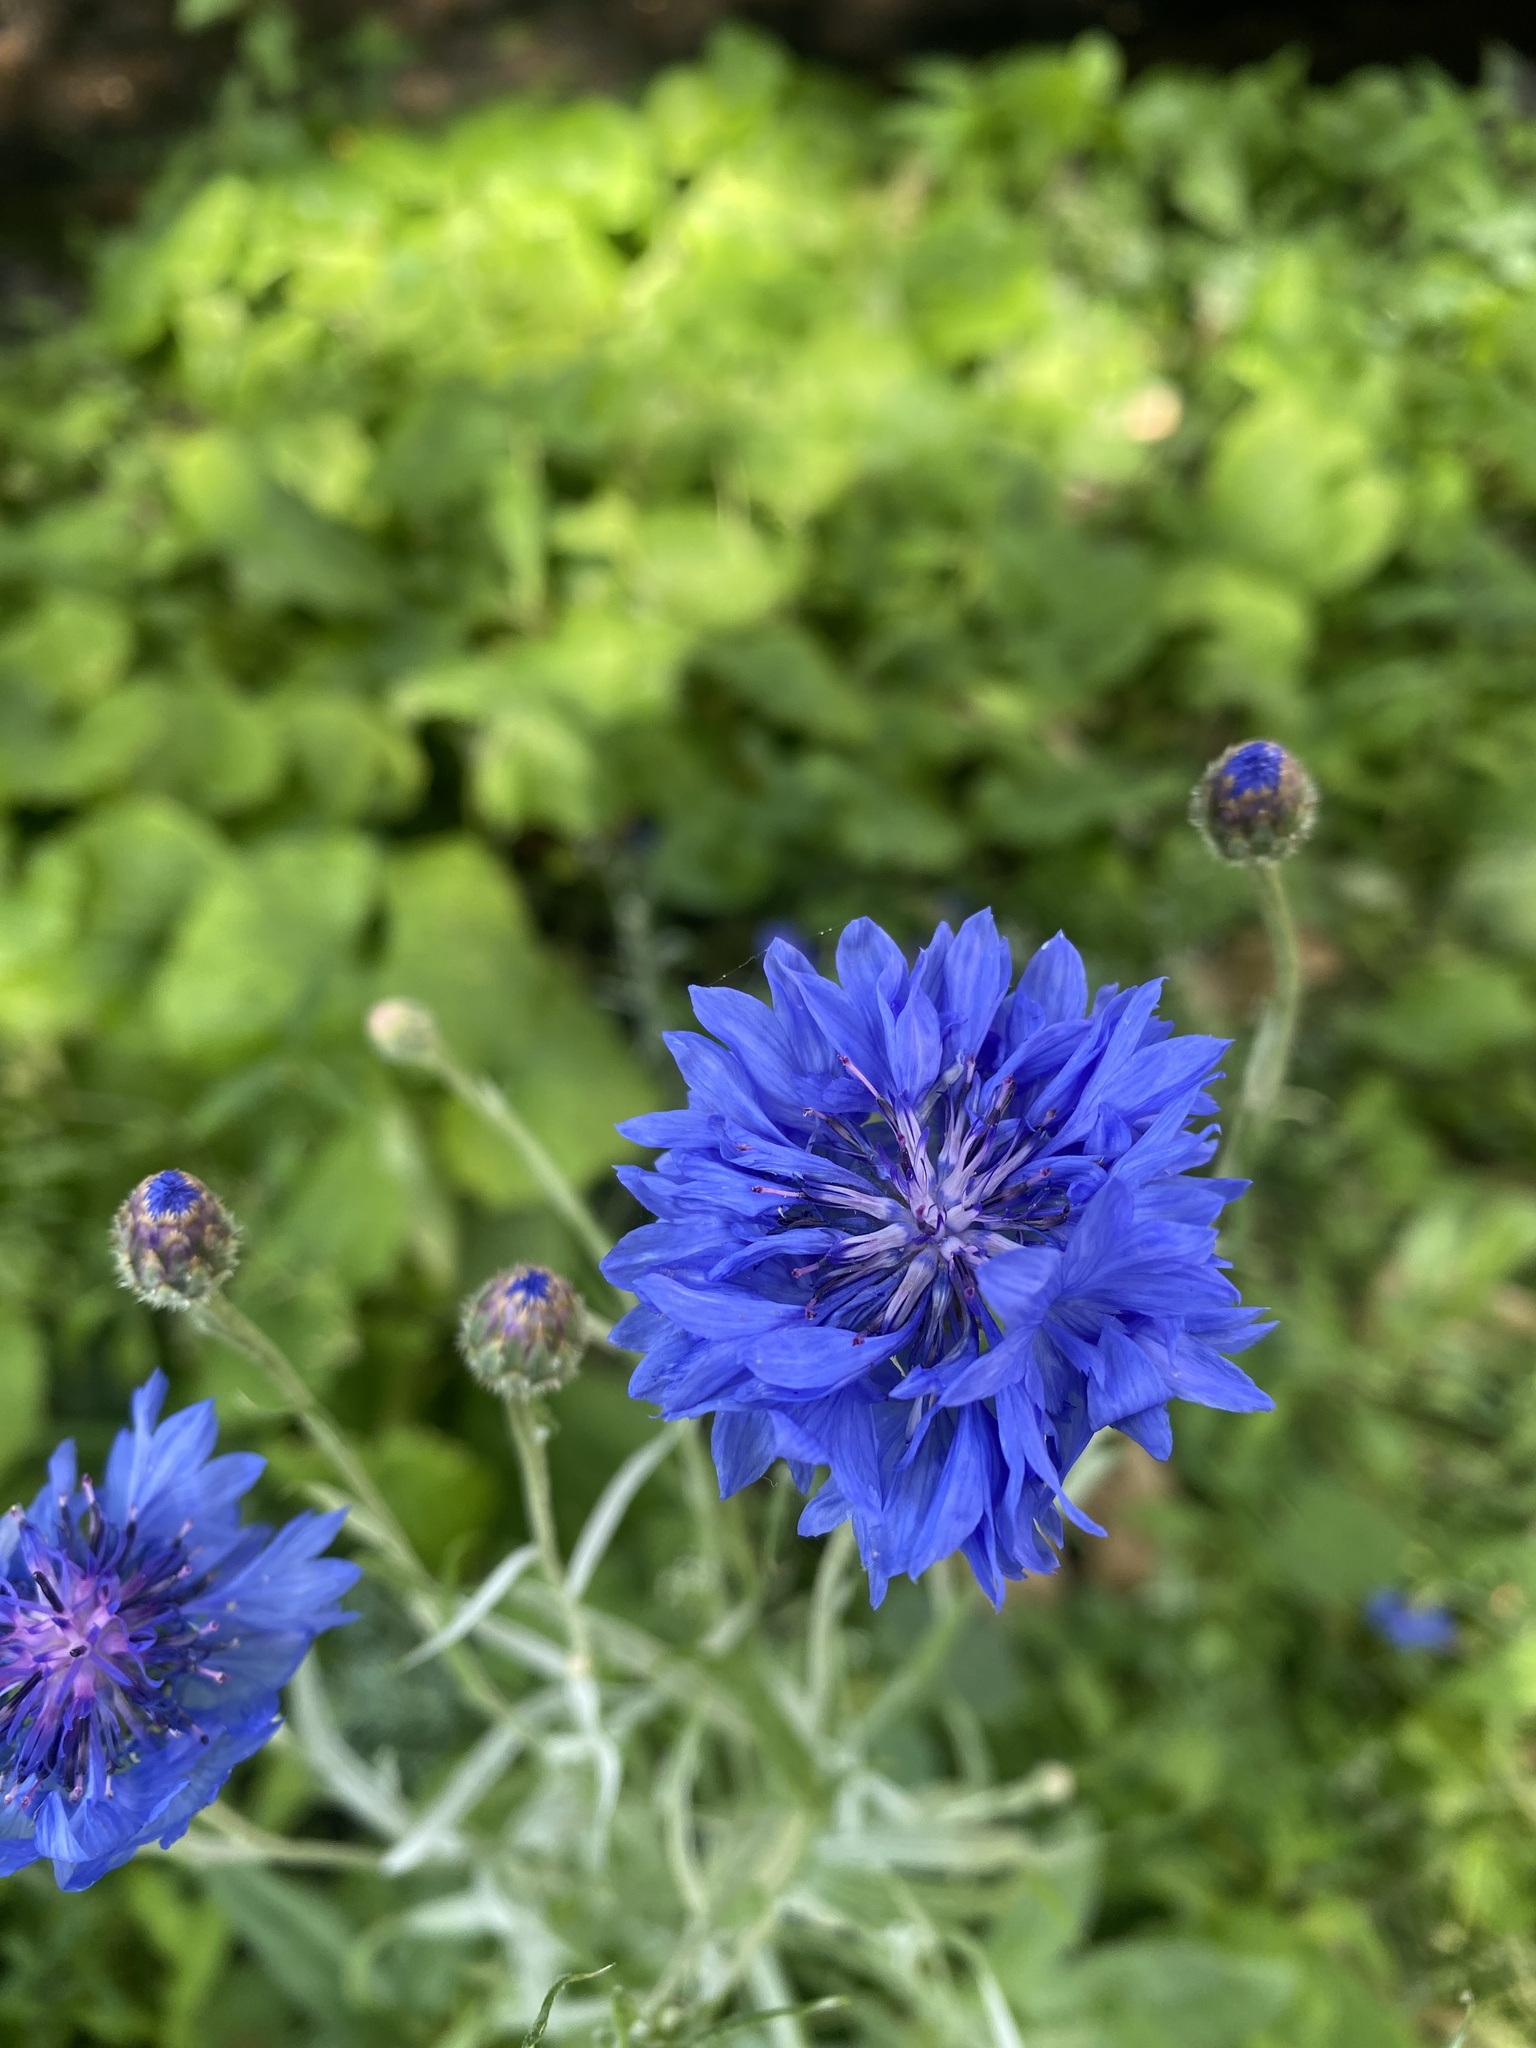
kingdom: Plantae
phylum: Tracheophyta
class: Magnoliopsida
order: Asterales
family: Asteraceae
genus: Centaurea
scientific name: Centaurea cyanus
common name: Cornflower
